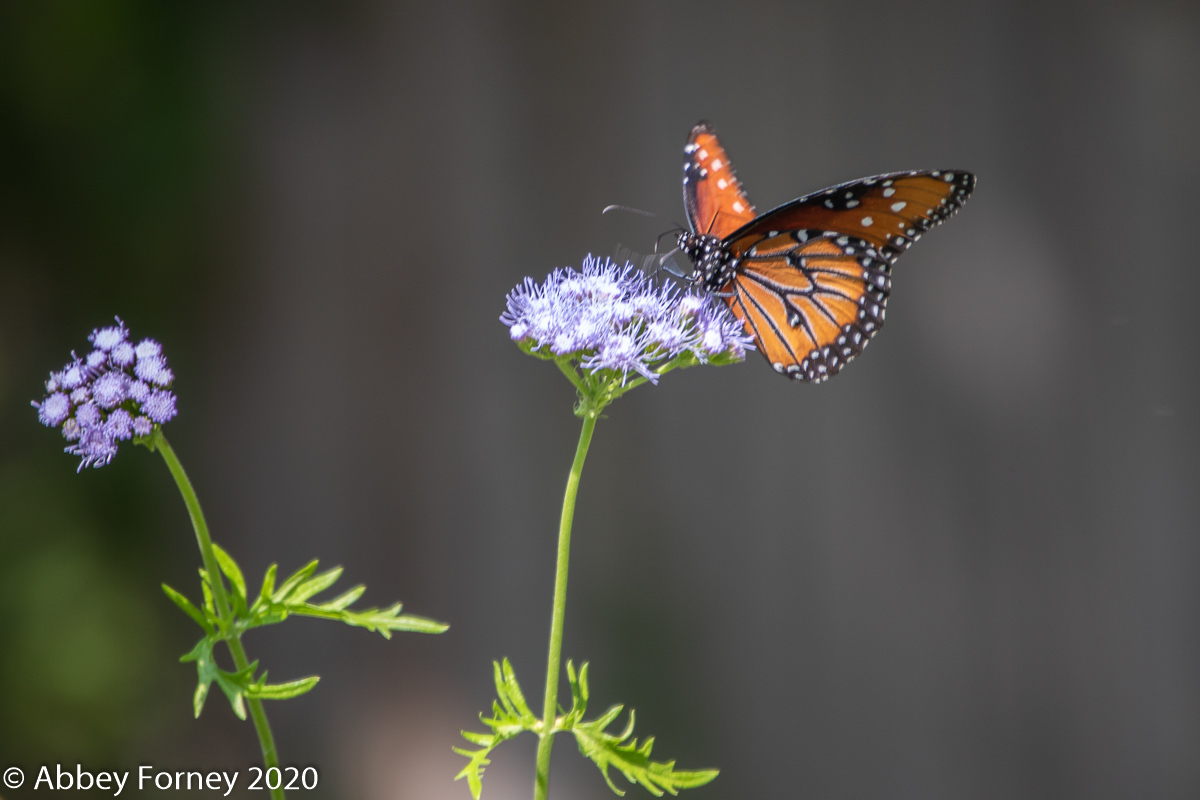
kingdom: Animalia
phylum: Arthropoda
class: Insecta
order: Lepidoptera
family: Nymphalidae
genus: Danaus
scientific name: Danaus gilippus
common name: Queen
